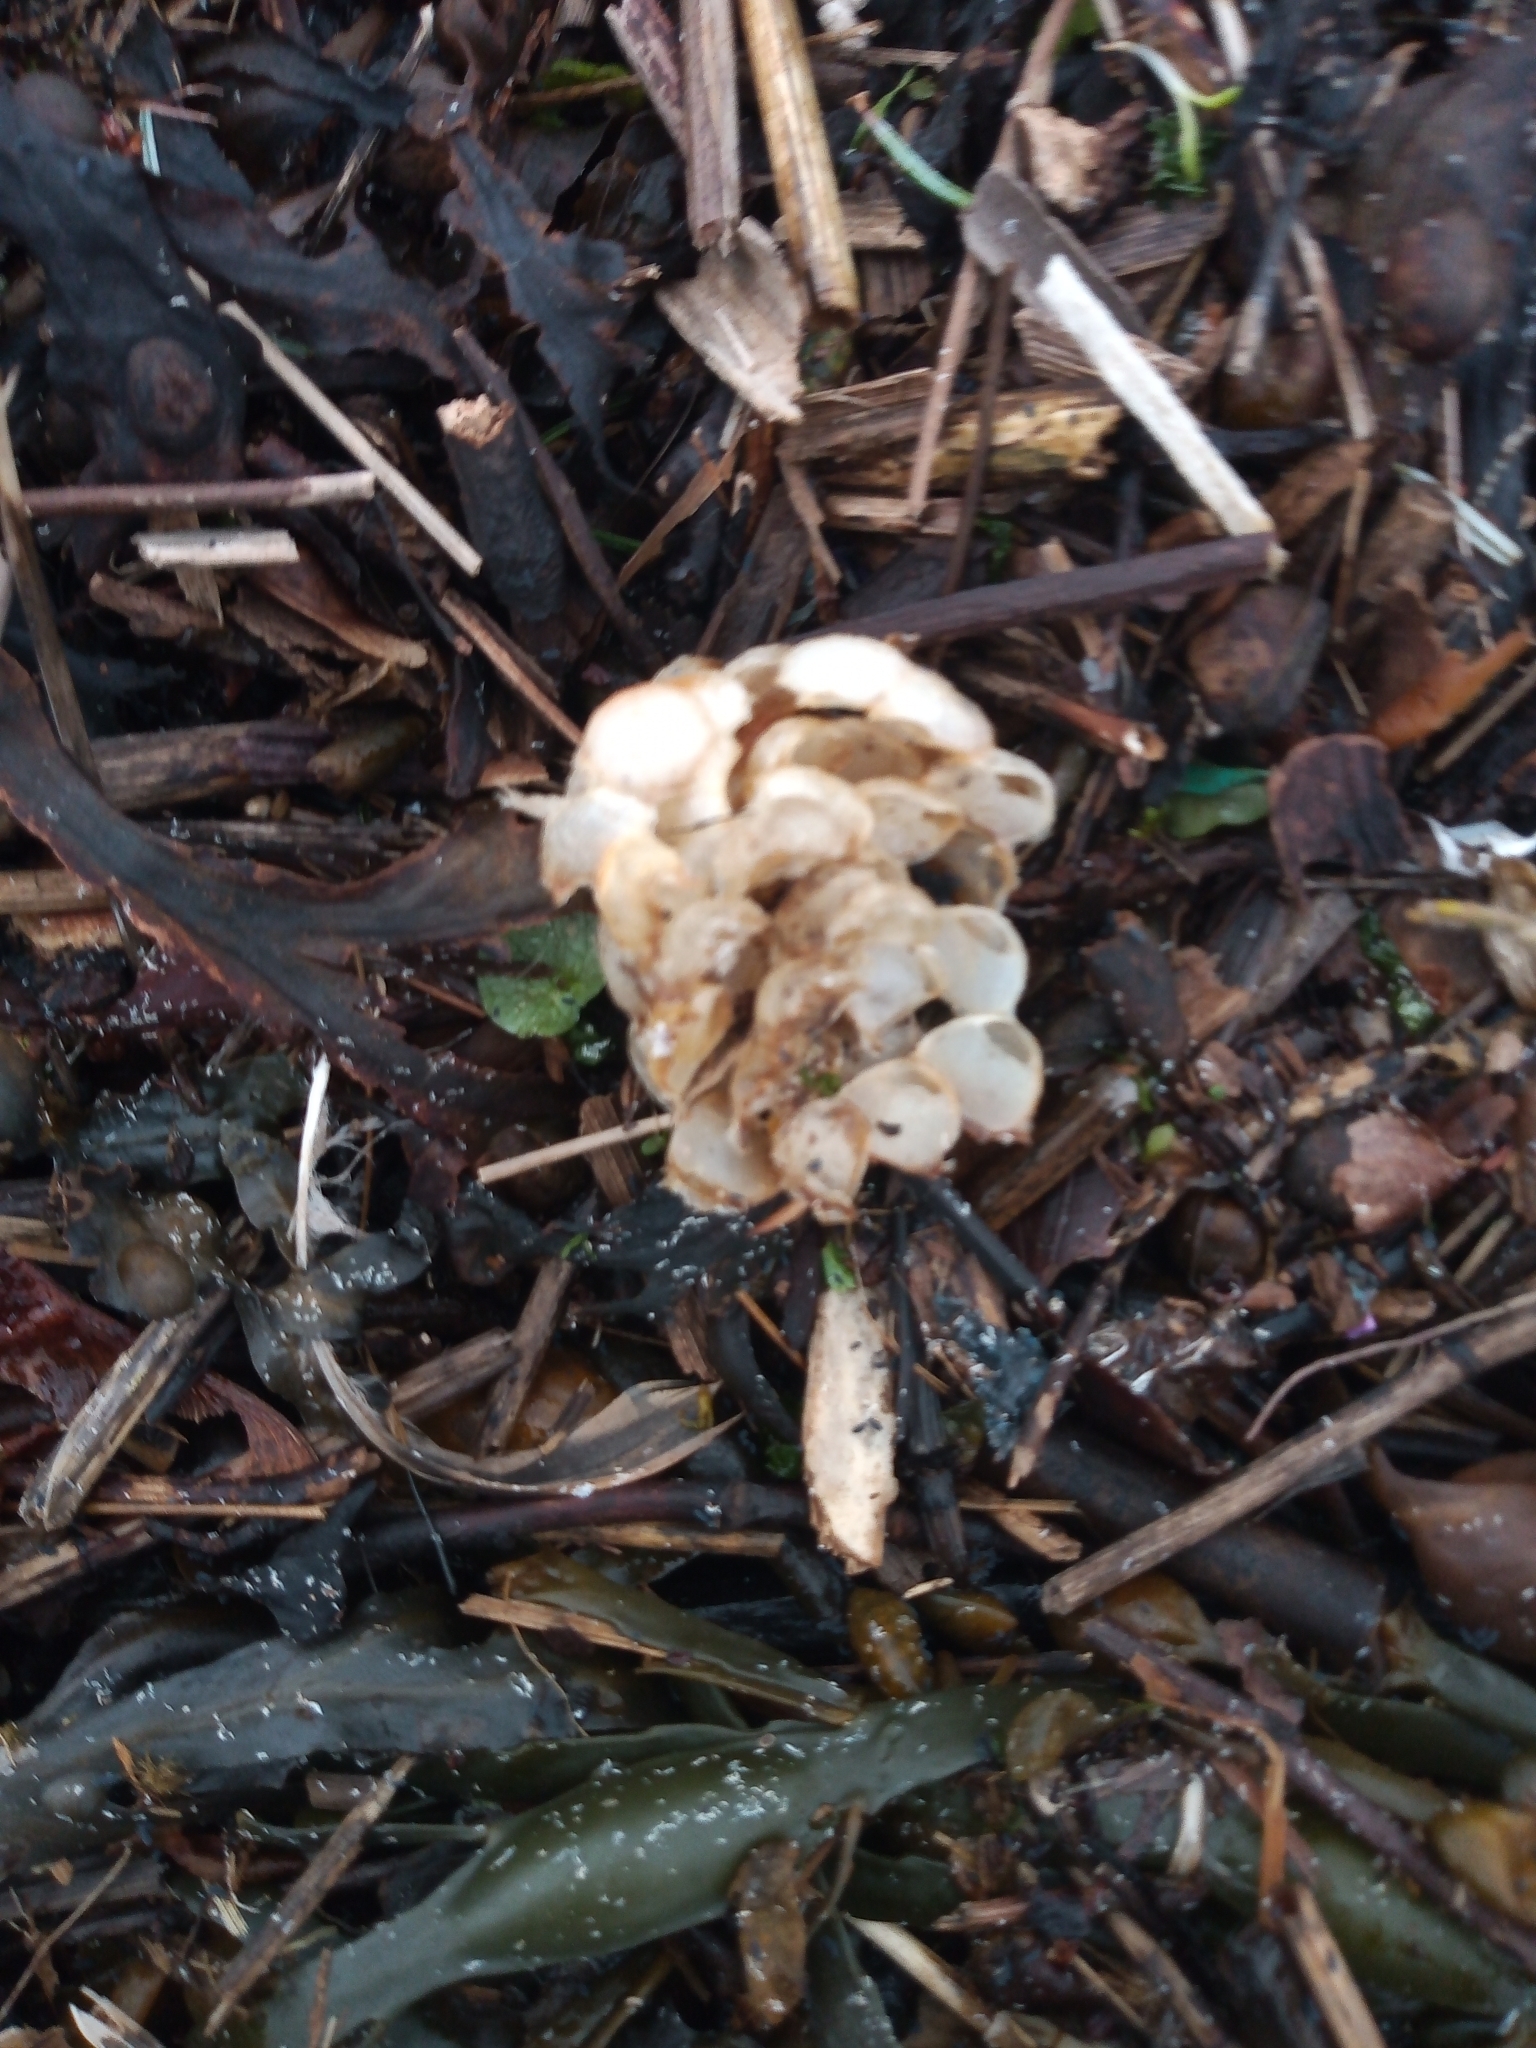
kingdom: Animalia
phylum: Mollusca
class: Gastropoda
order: Neogastropoda
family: Buccinidae
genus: Buccinum
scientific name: Buccinum undatum
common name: Common whelk
